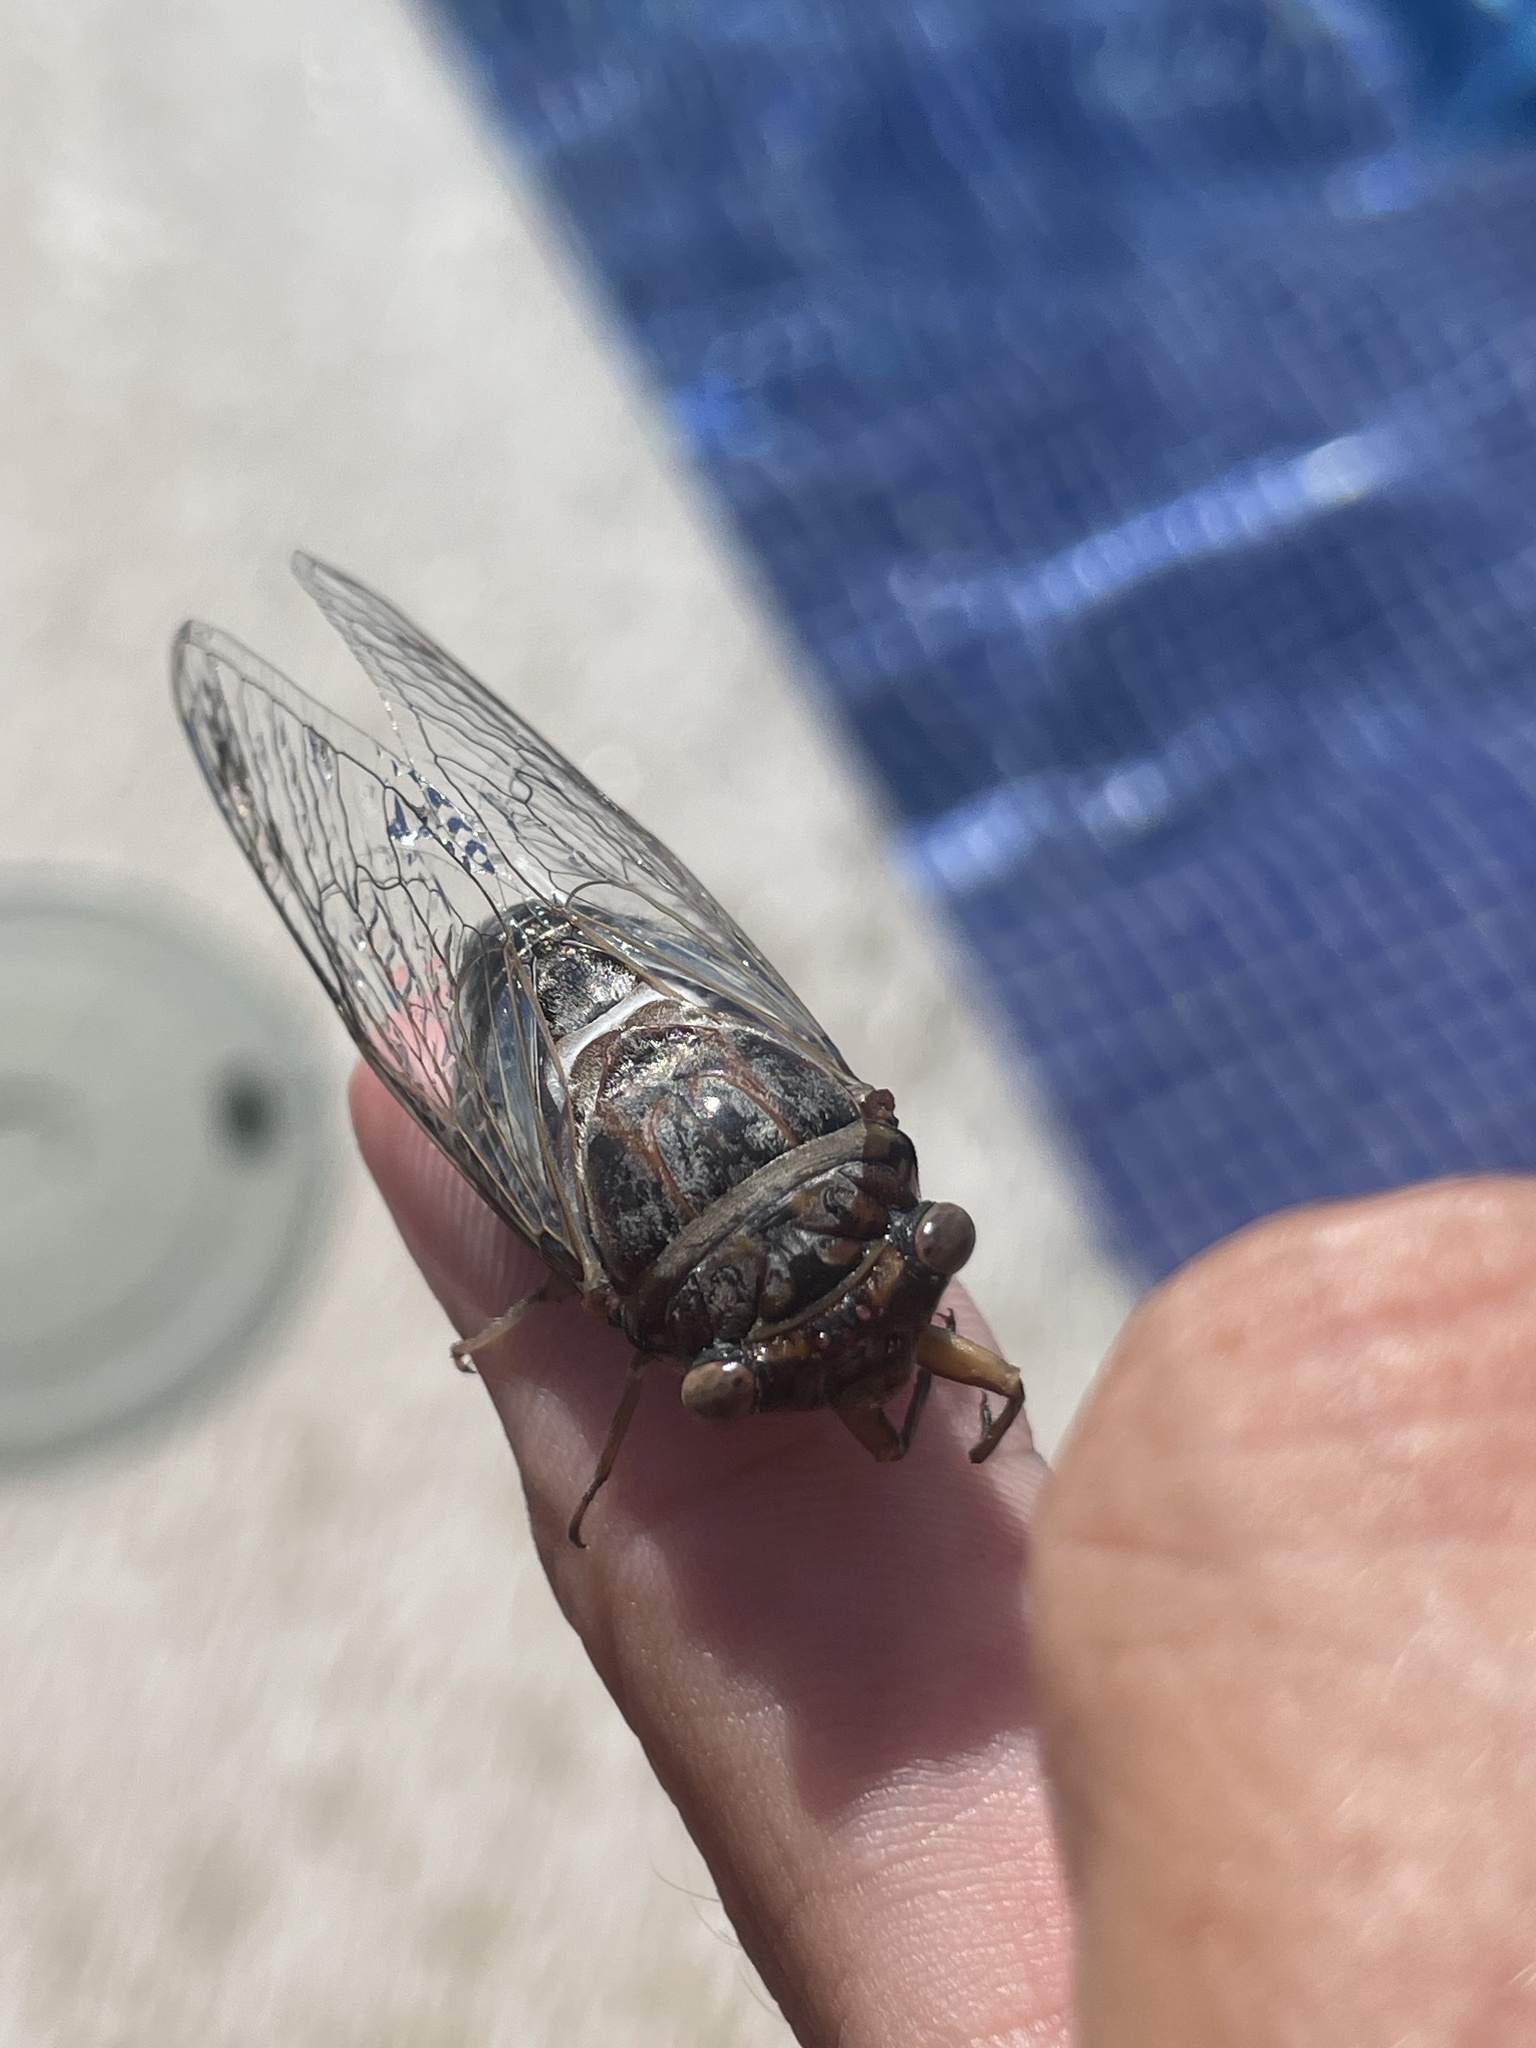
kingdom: Animalia
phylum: Arthropoda
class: Insecta
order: Hemiptera
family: Cicadidae
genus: Diceroprocta
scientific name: Diceroprocta digueti
